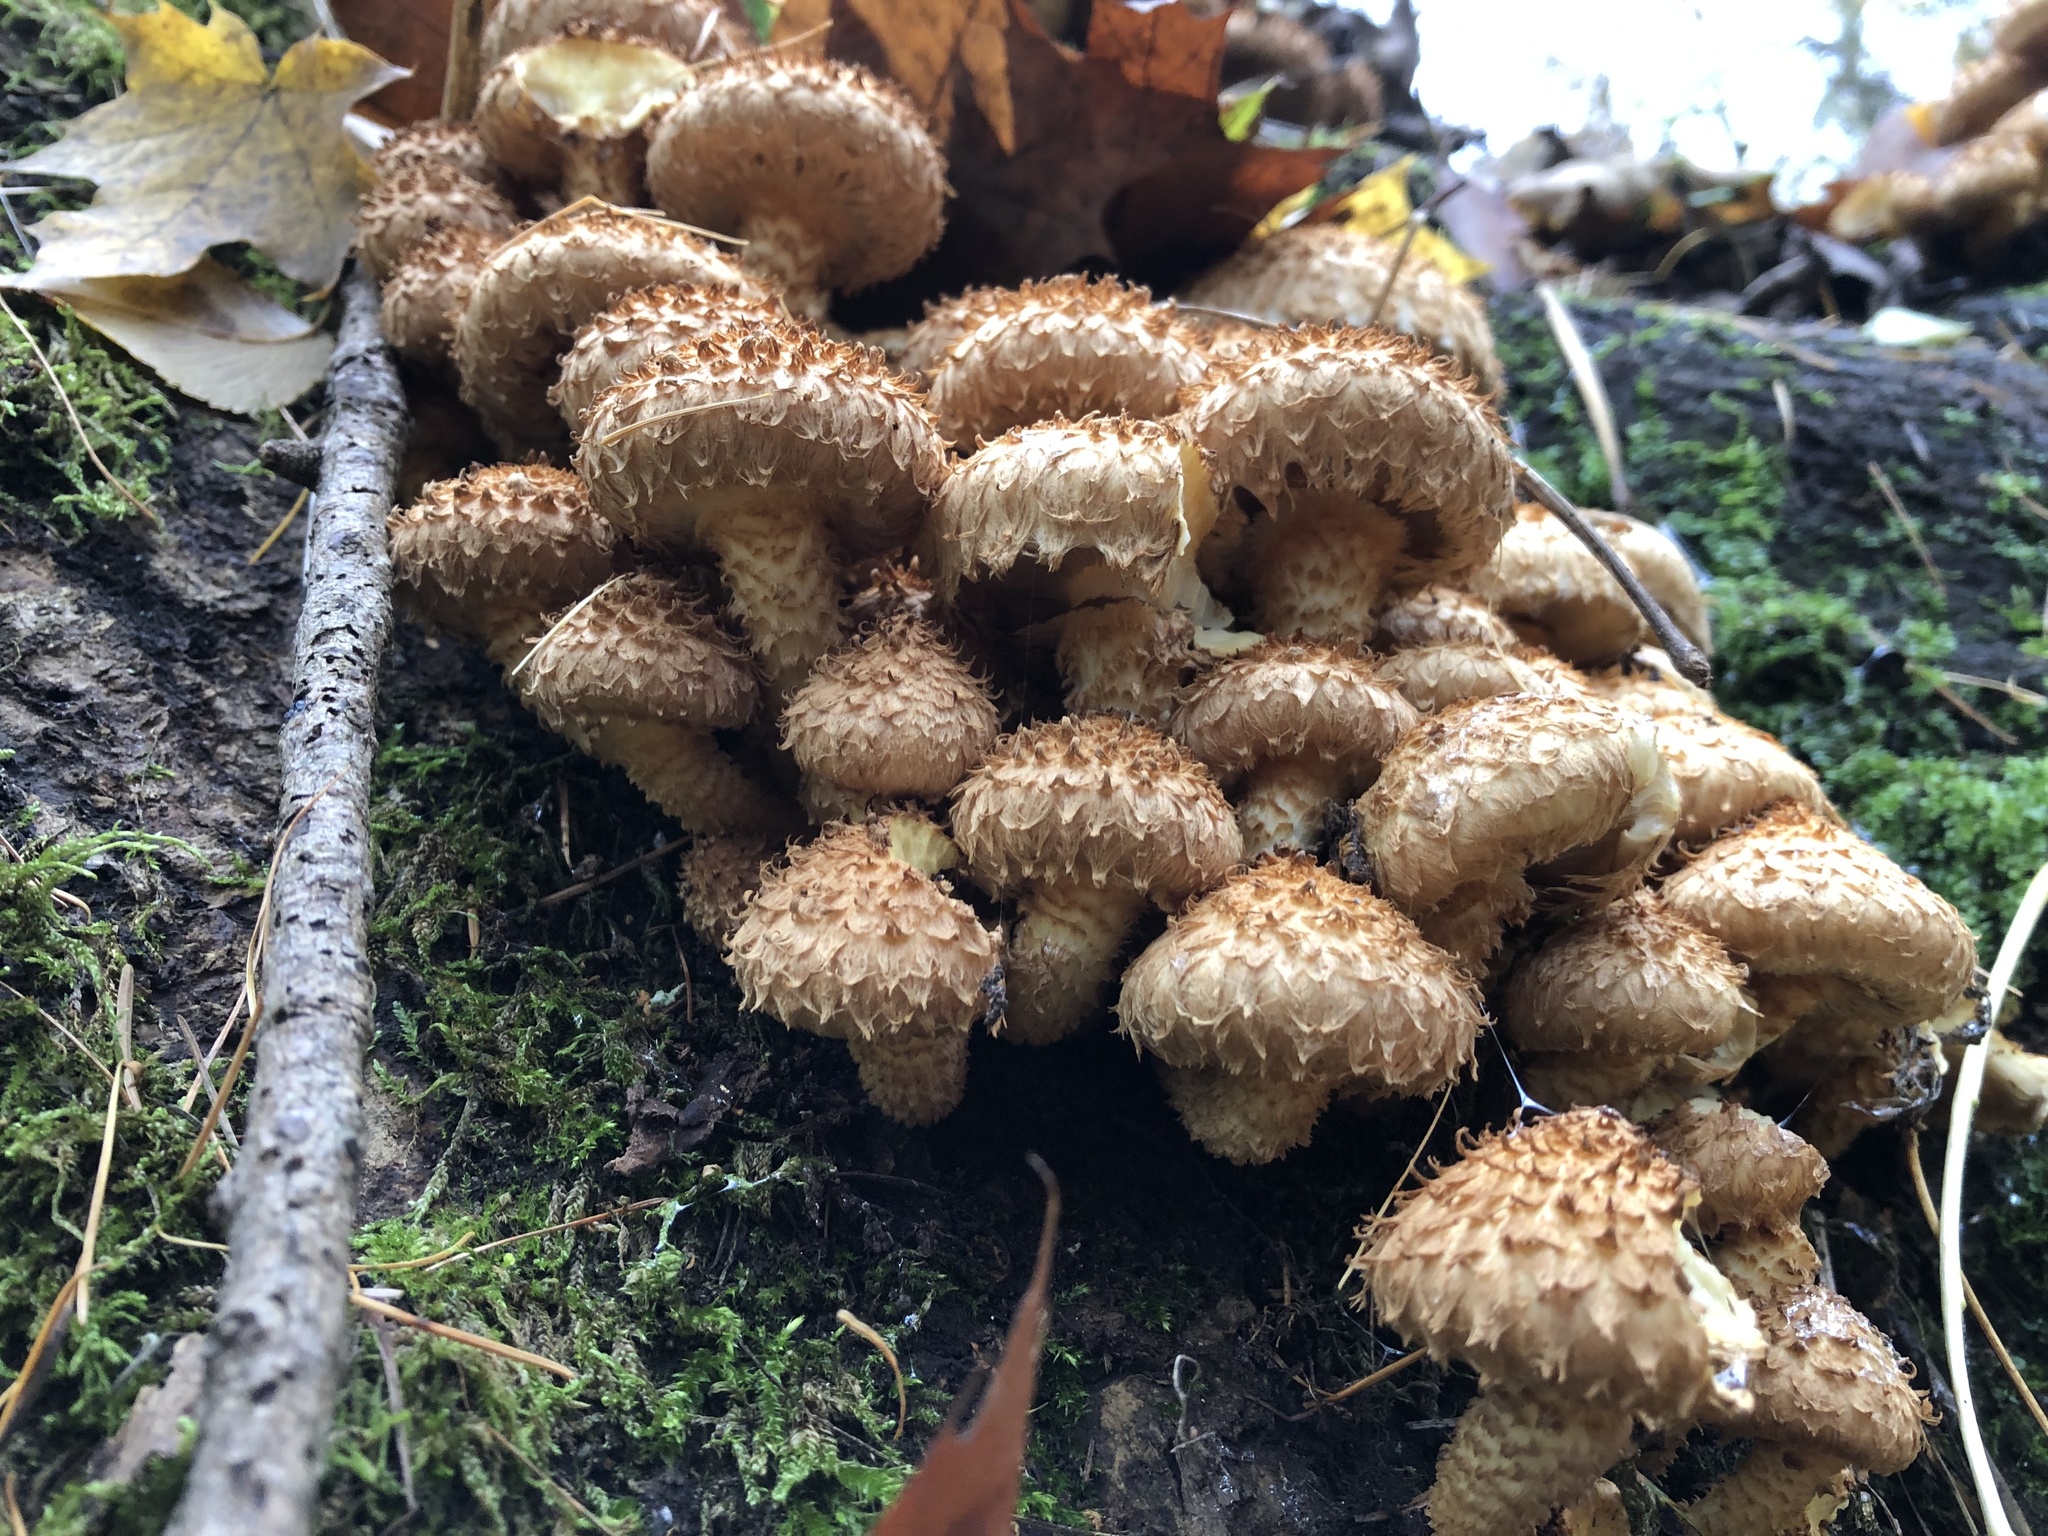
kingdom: Fungi
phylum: Basidiomycota
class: Agaricomycetes
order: Agaricales
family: Strophariaceae
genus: Pholiota
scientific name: Pholiota squarrosa
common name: Shaggy pholiota
